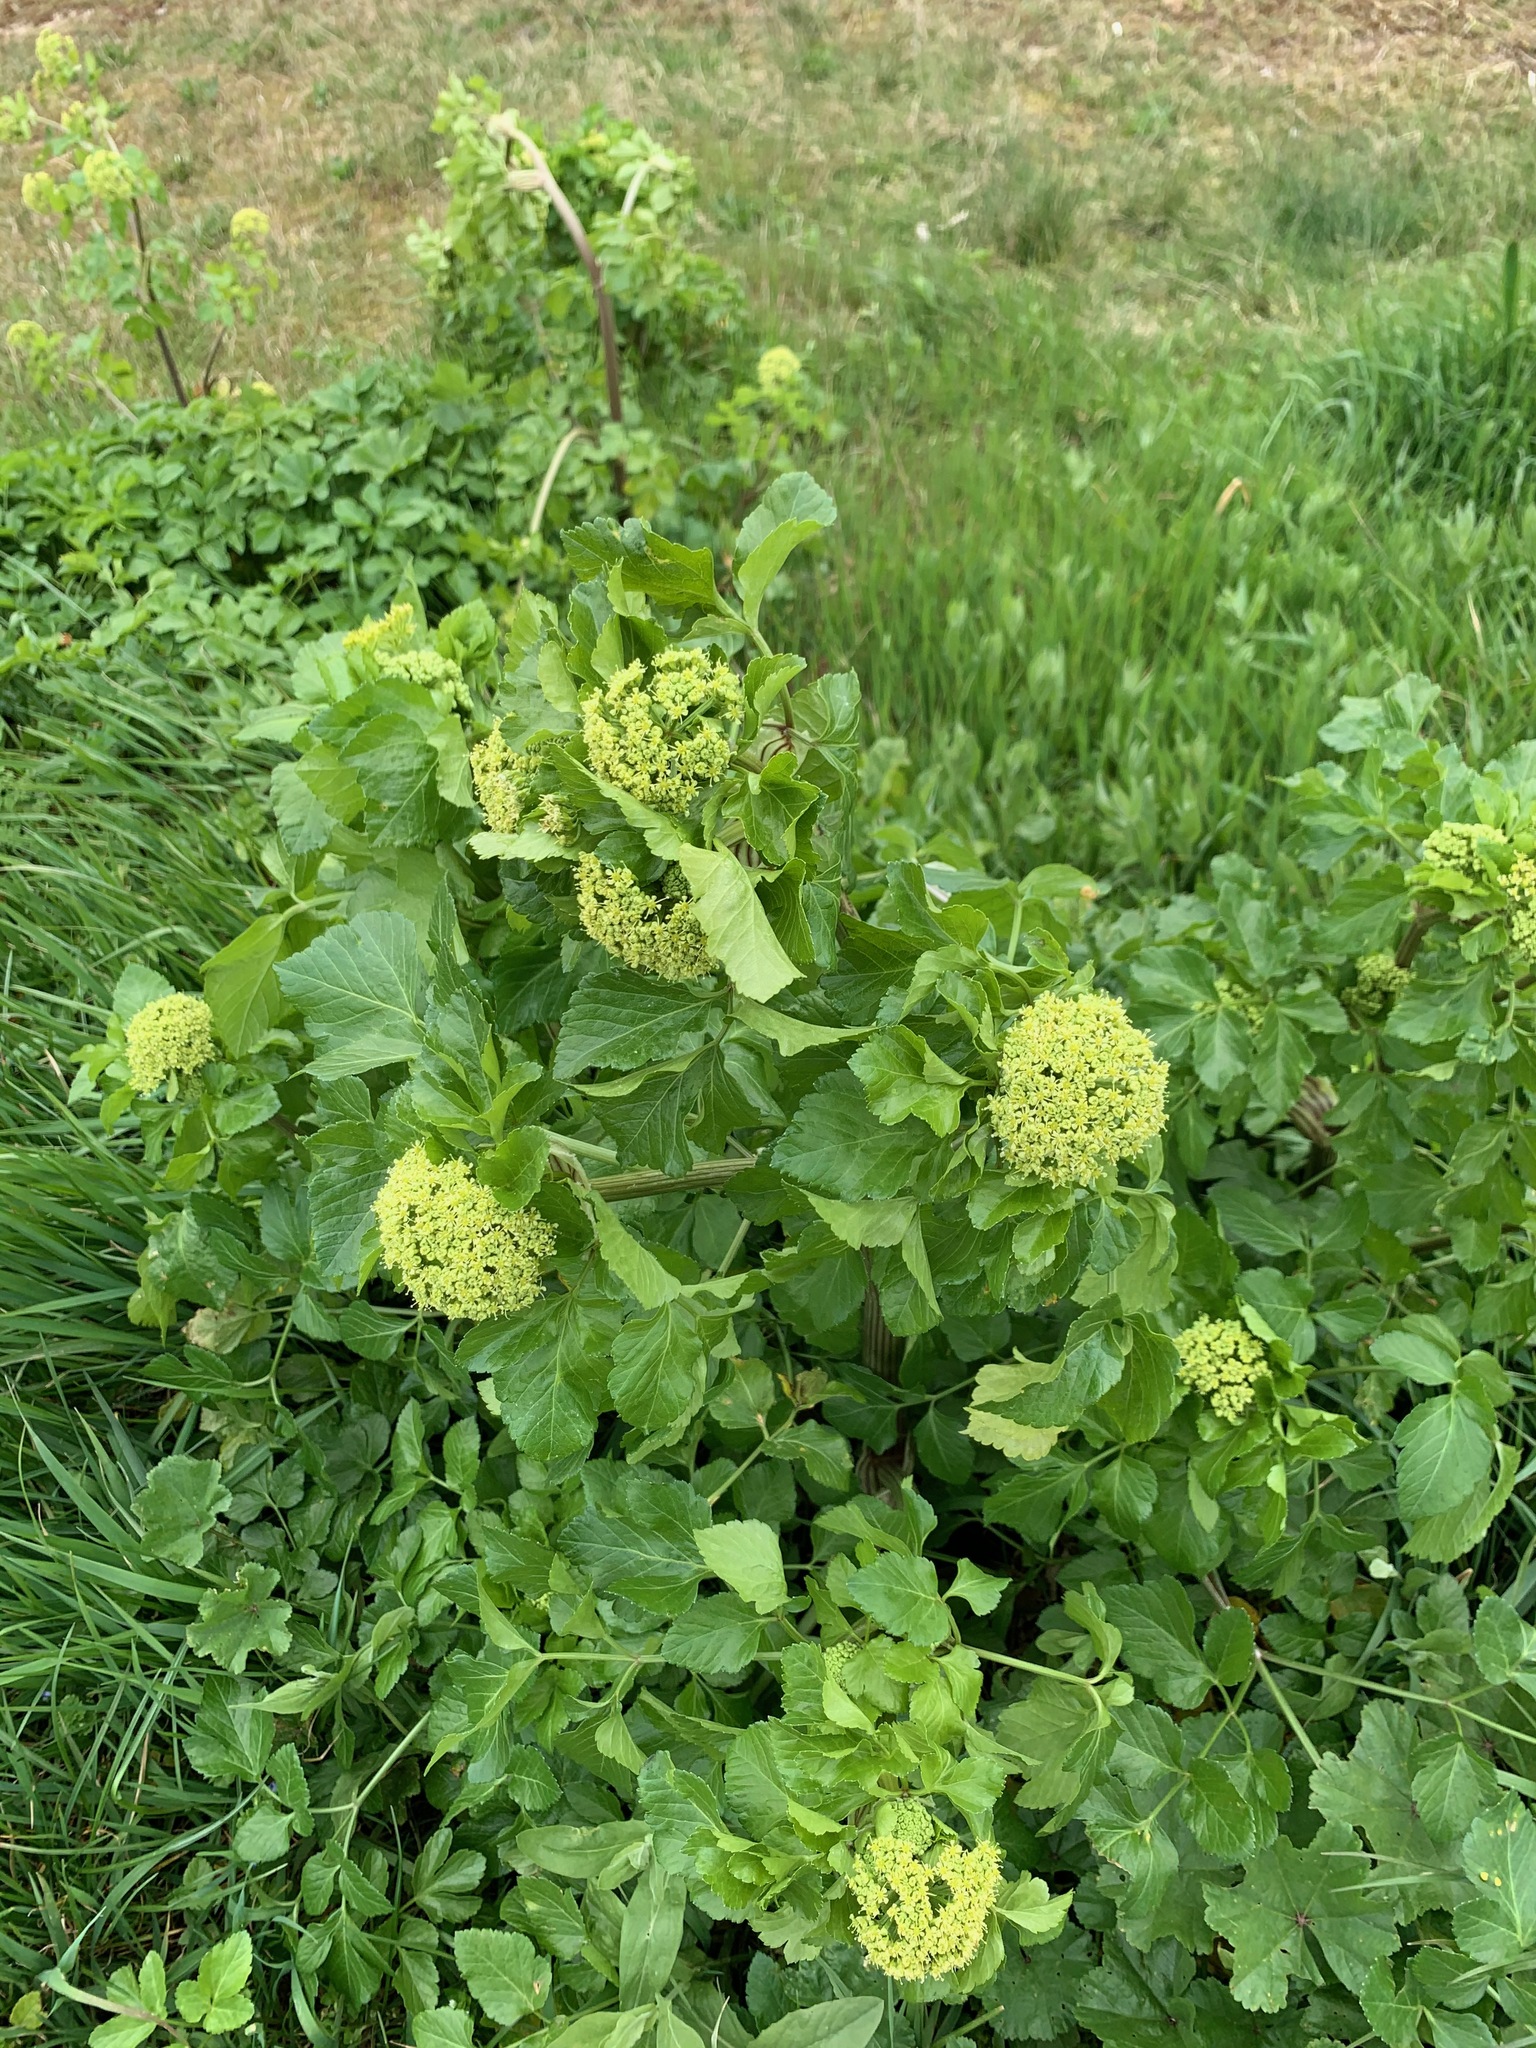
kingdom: Plantae
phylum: Tracheophyta
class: Magnoliopsida
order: Apiales
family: Apiaceae
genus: Smyrnium
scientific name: Smyrnium olusatrum
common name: Alexanders
